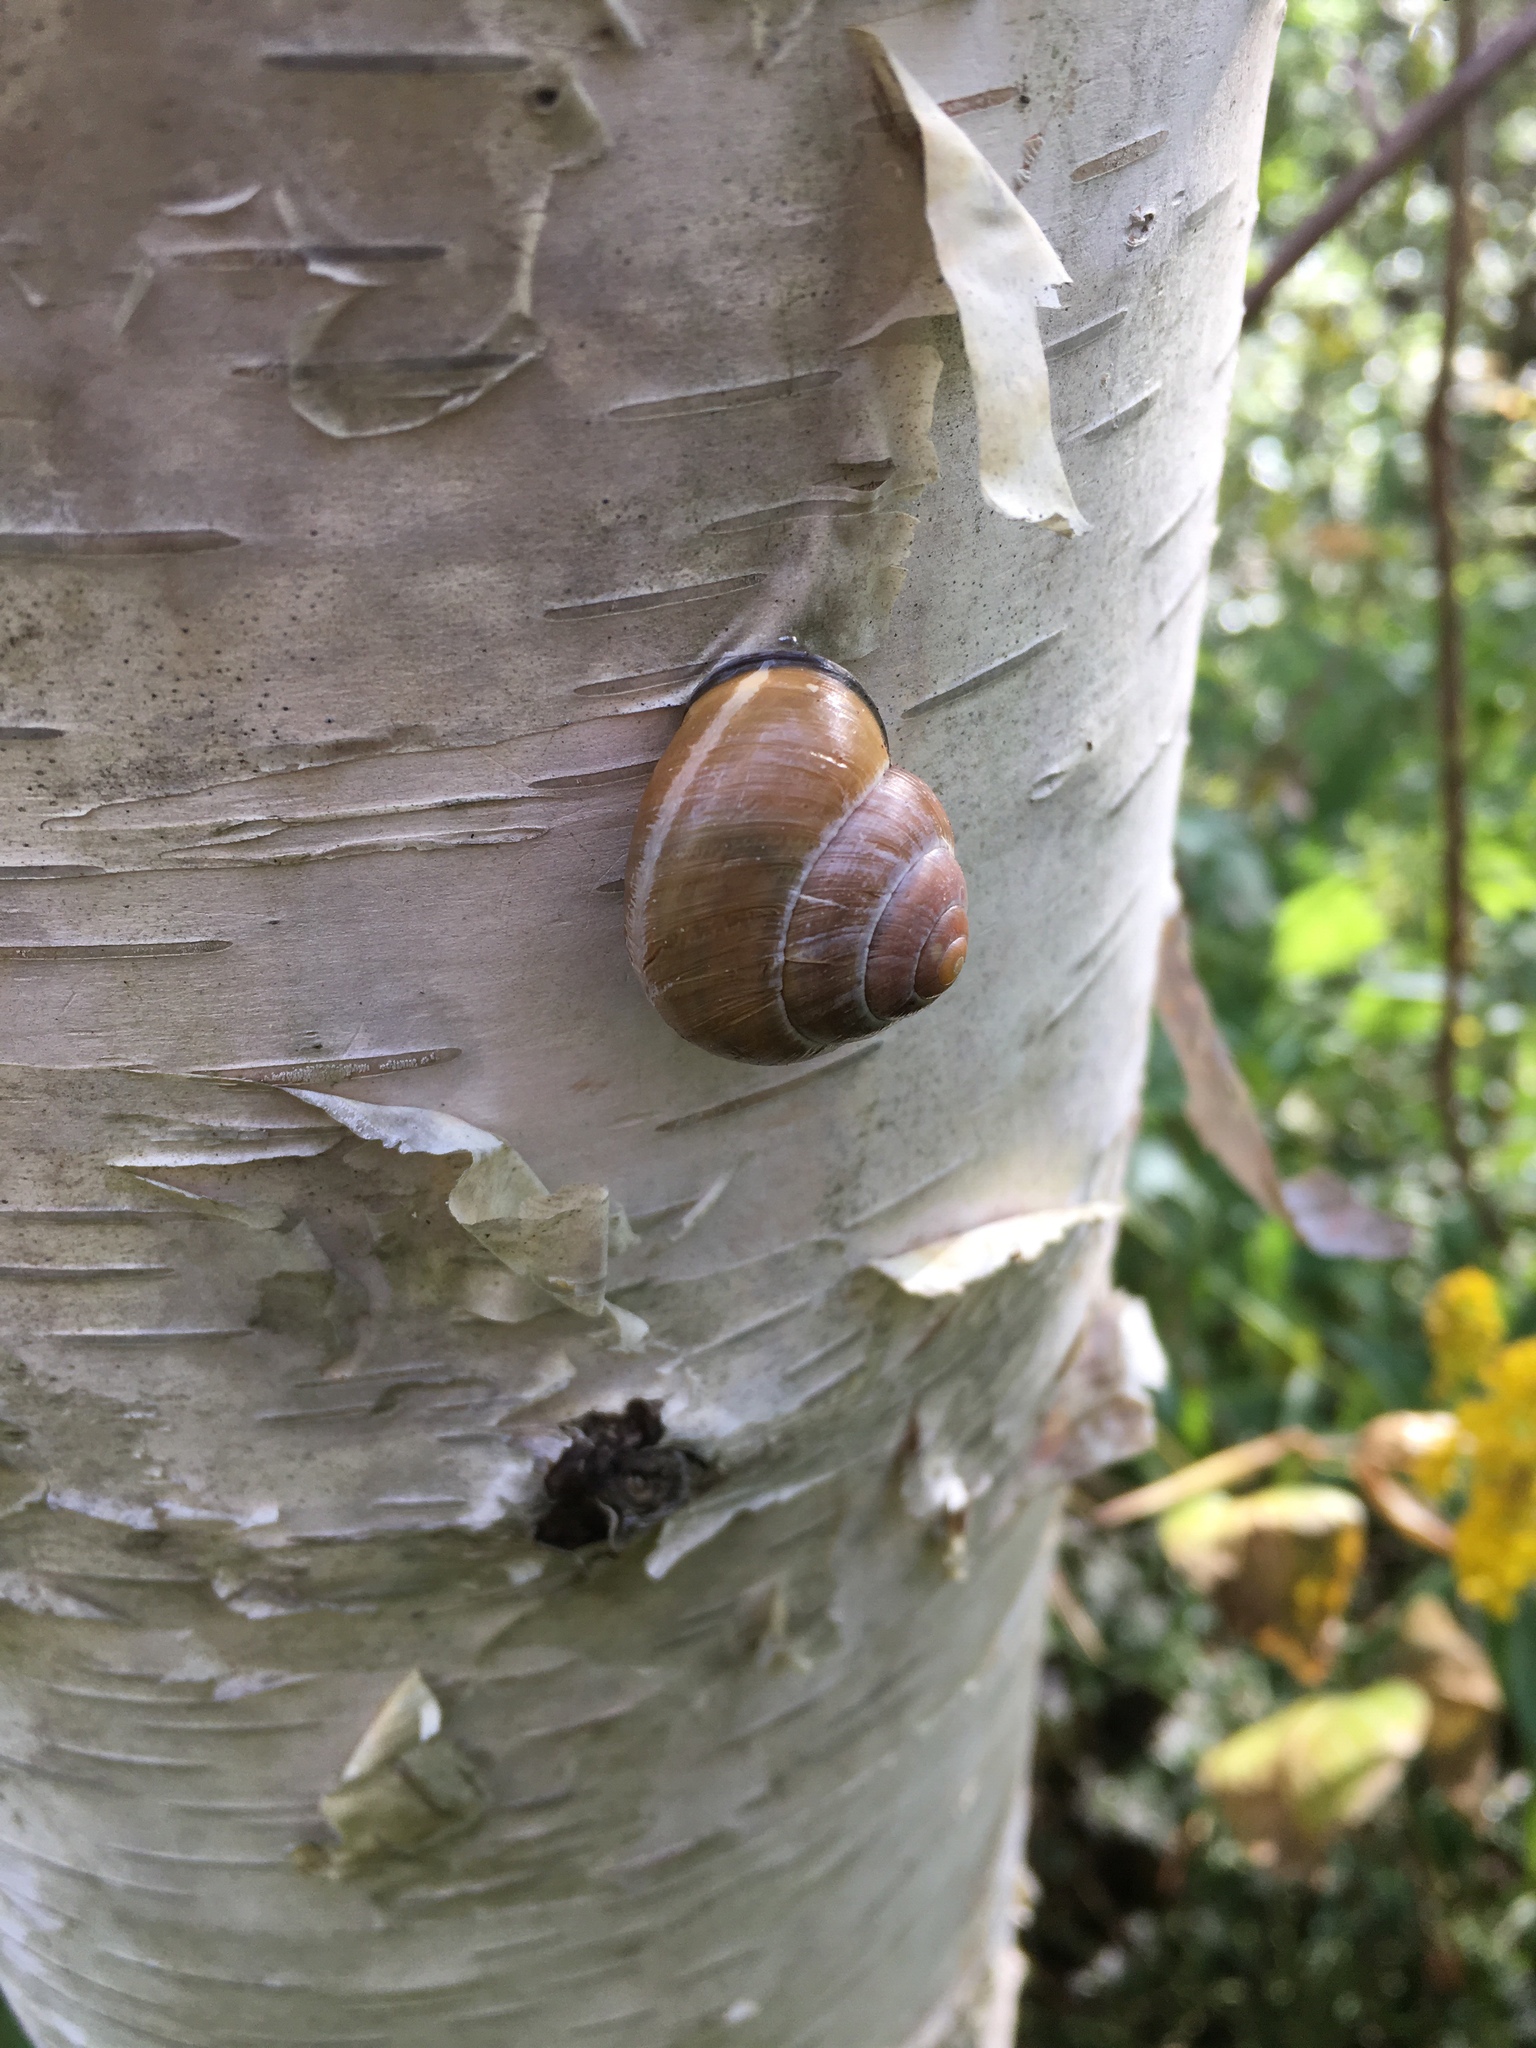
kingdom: Animalia
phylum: Mollusca
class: Gastropoda
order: Stylommatophora
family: Helicidae
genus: Cepaea
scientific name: Cepaea nemoralis
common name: Grovesnail
